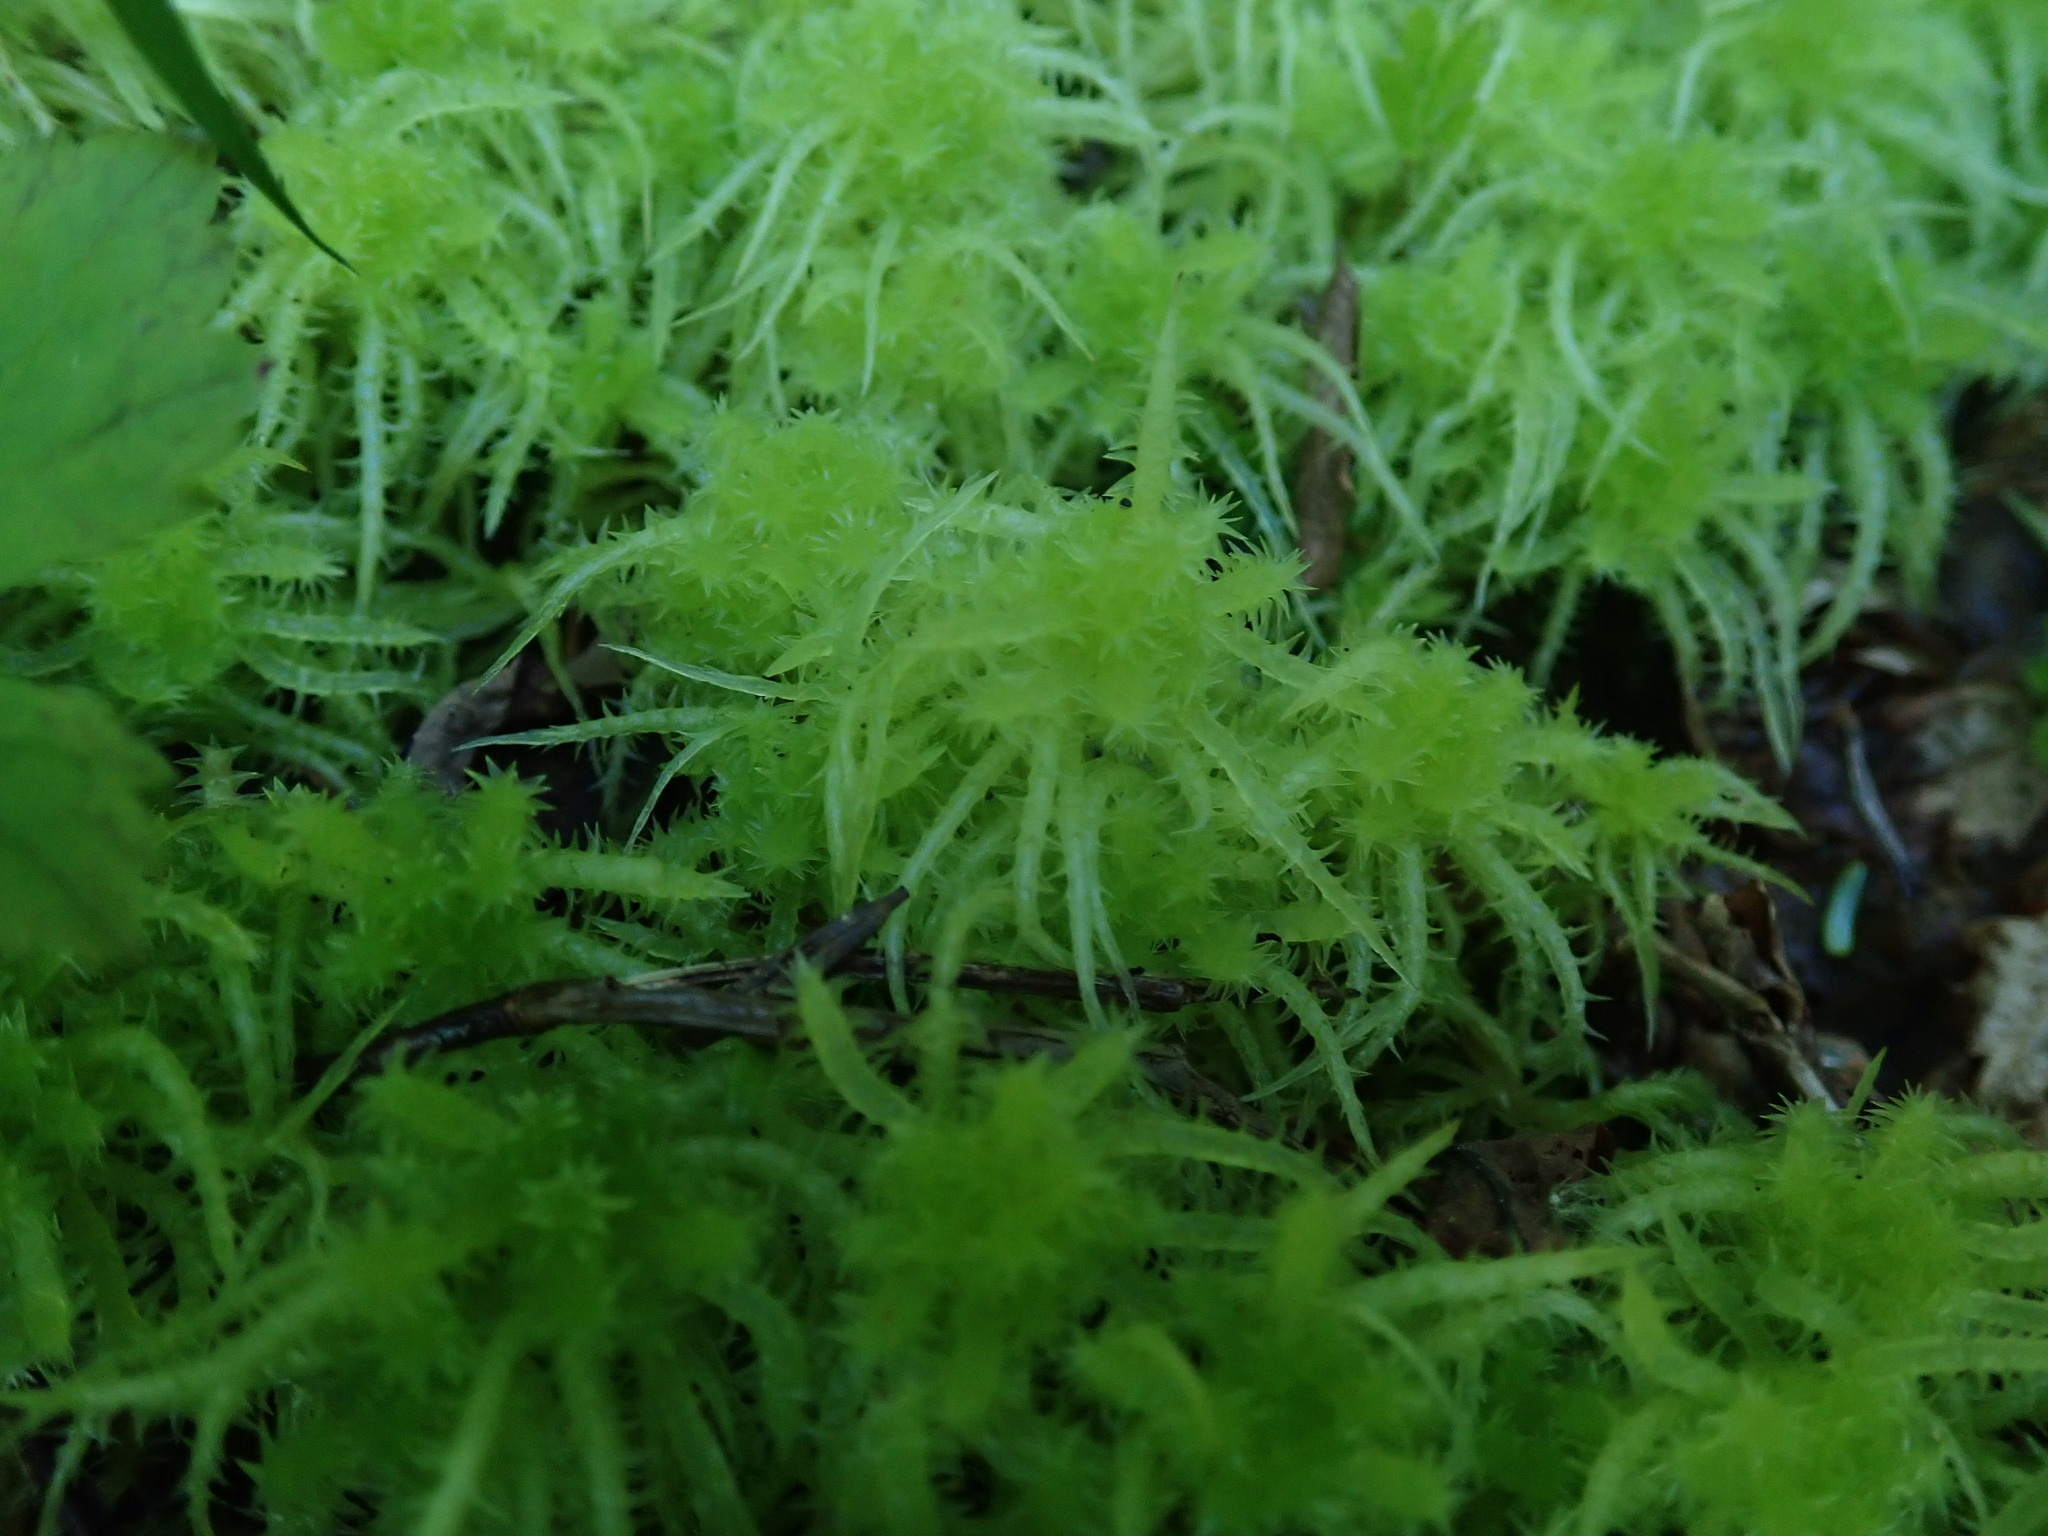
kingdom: Plantae
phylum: Bryophyta
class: Sphagnopsida
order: Sphagnales
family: Sphagnaceae
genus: Sphagnum
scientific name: Sphagnum squarrosum
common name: Shaggy peat moss
